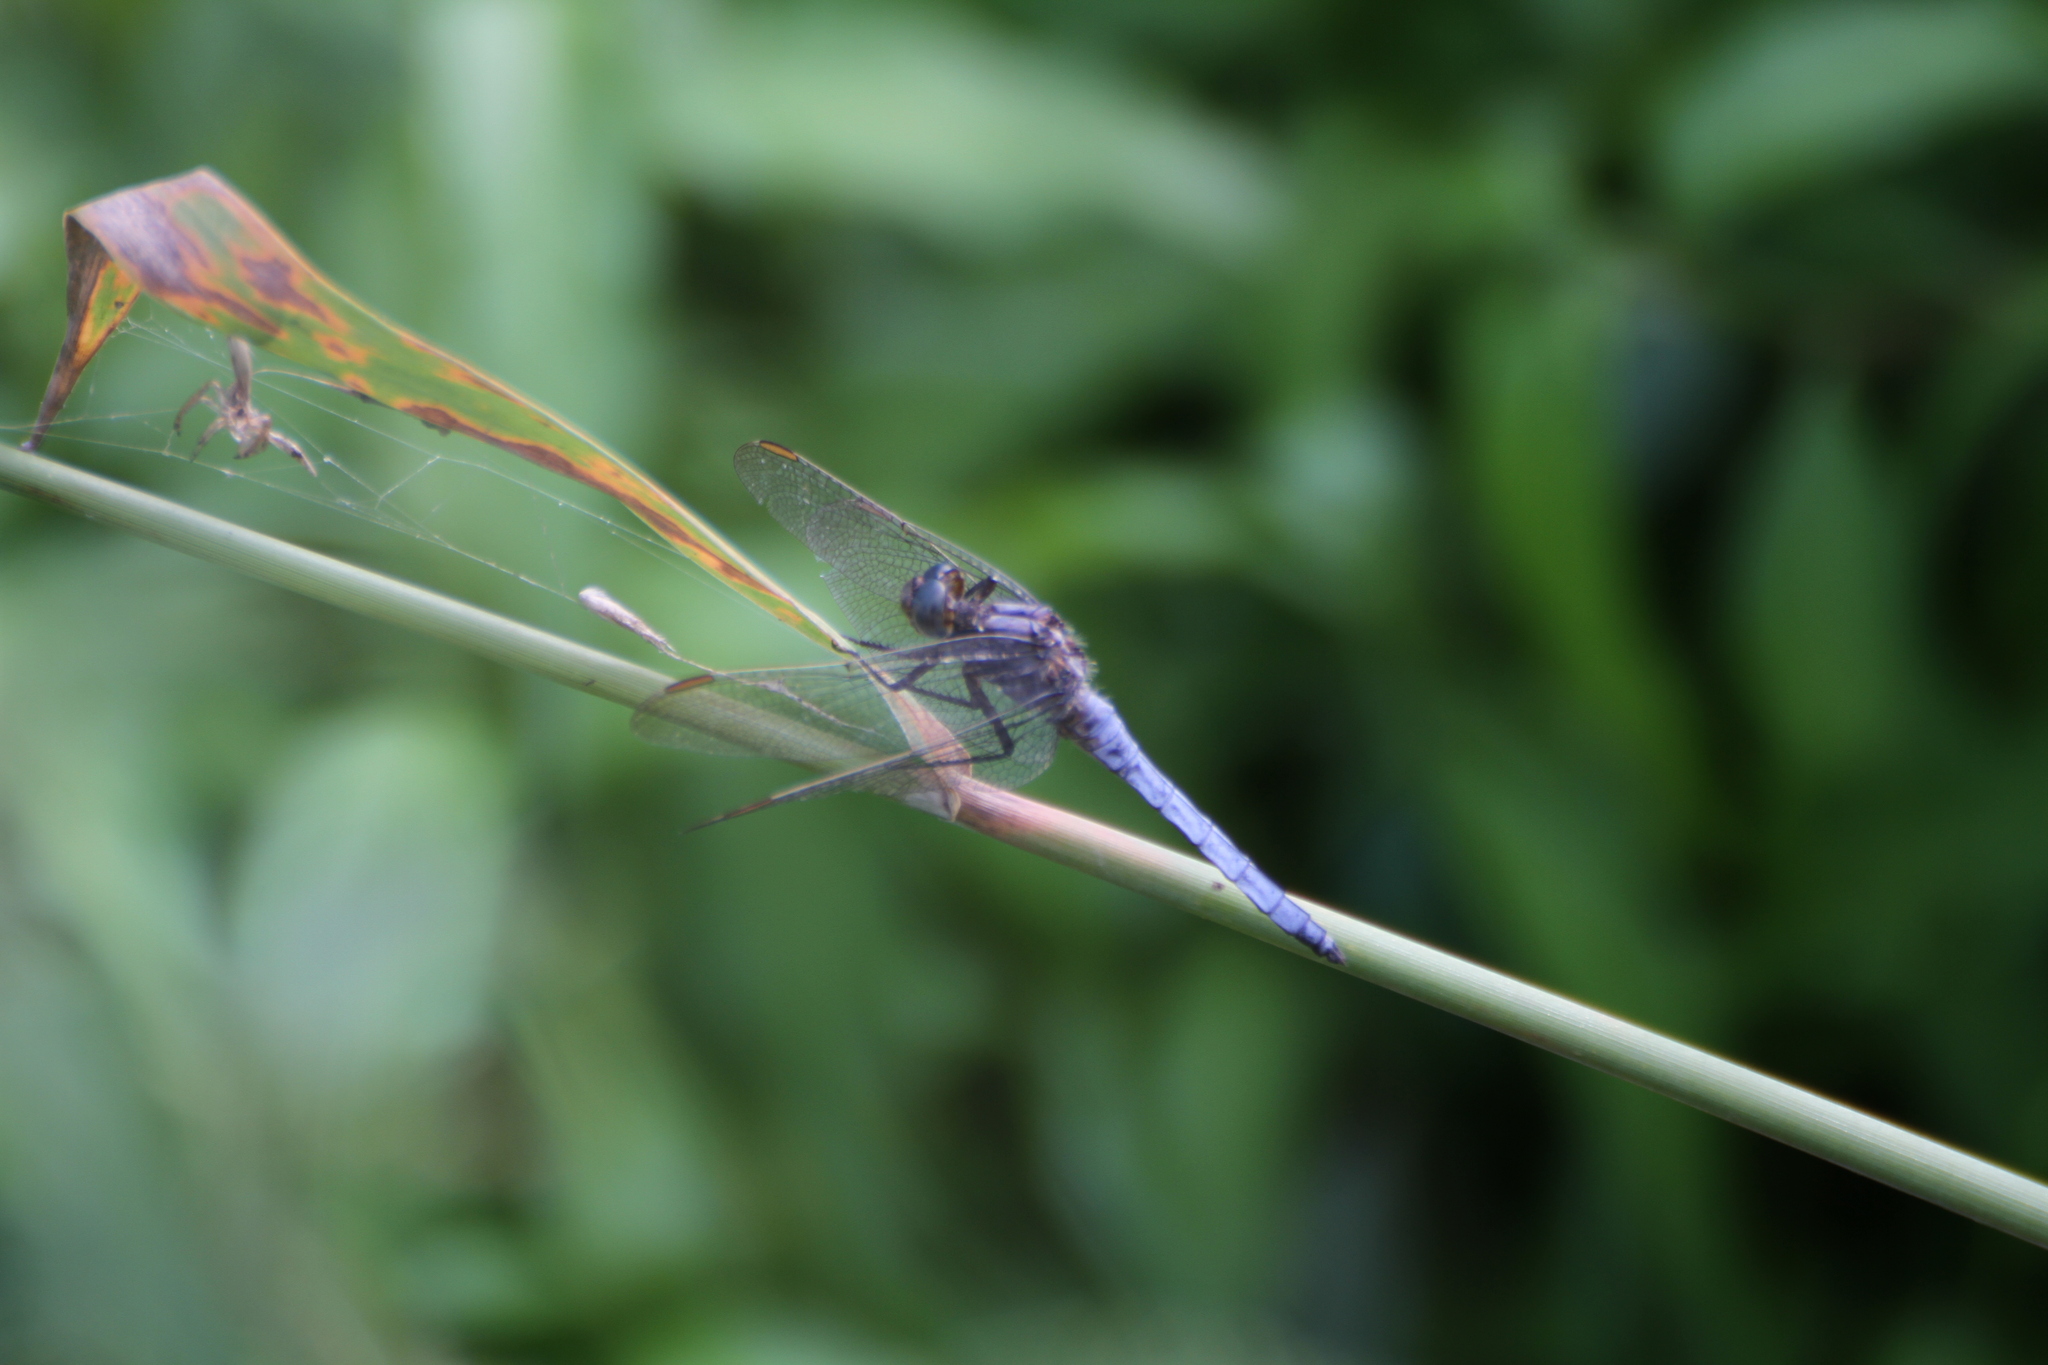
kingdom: Animalia
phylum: Arthropoda
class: Insecta
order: Odonata
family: Libellulidae
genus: Orthetrum
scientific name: Orthetrum coerulescens
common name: Keeled skimmer
